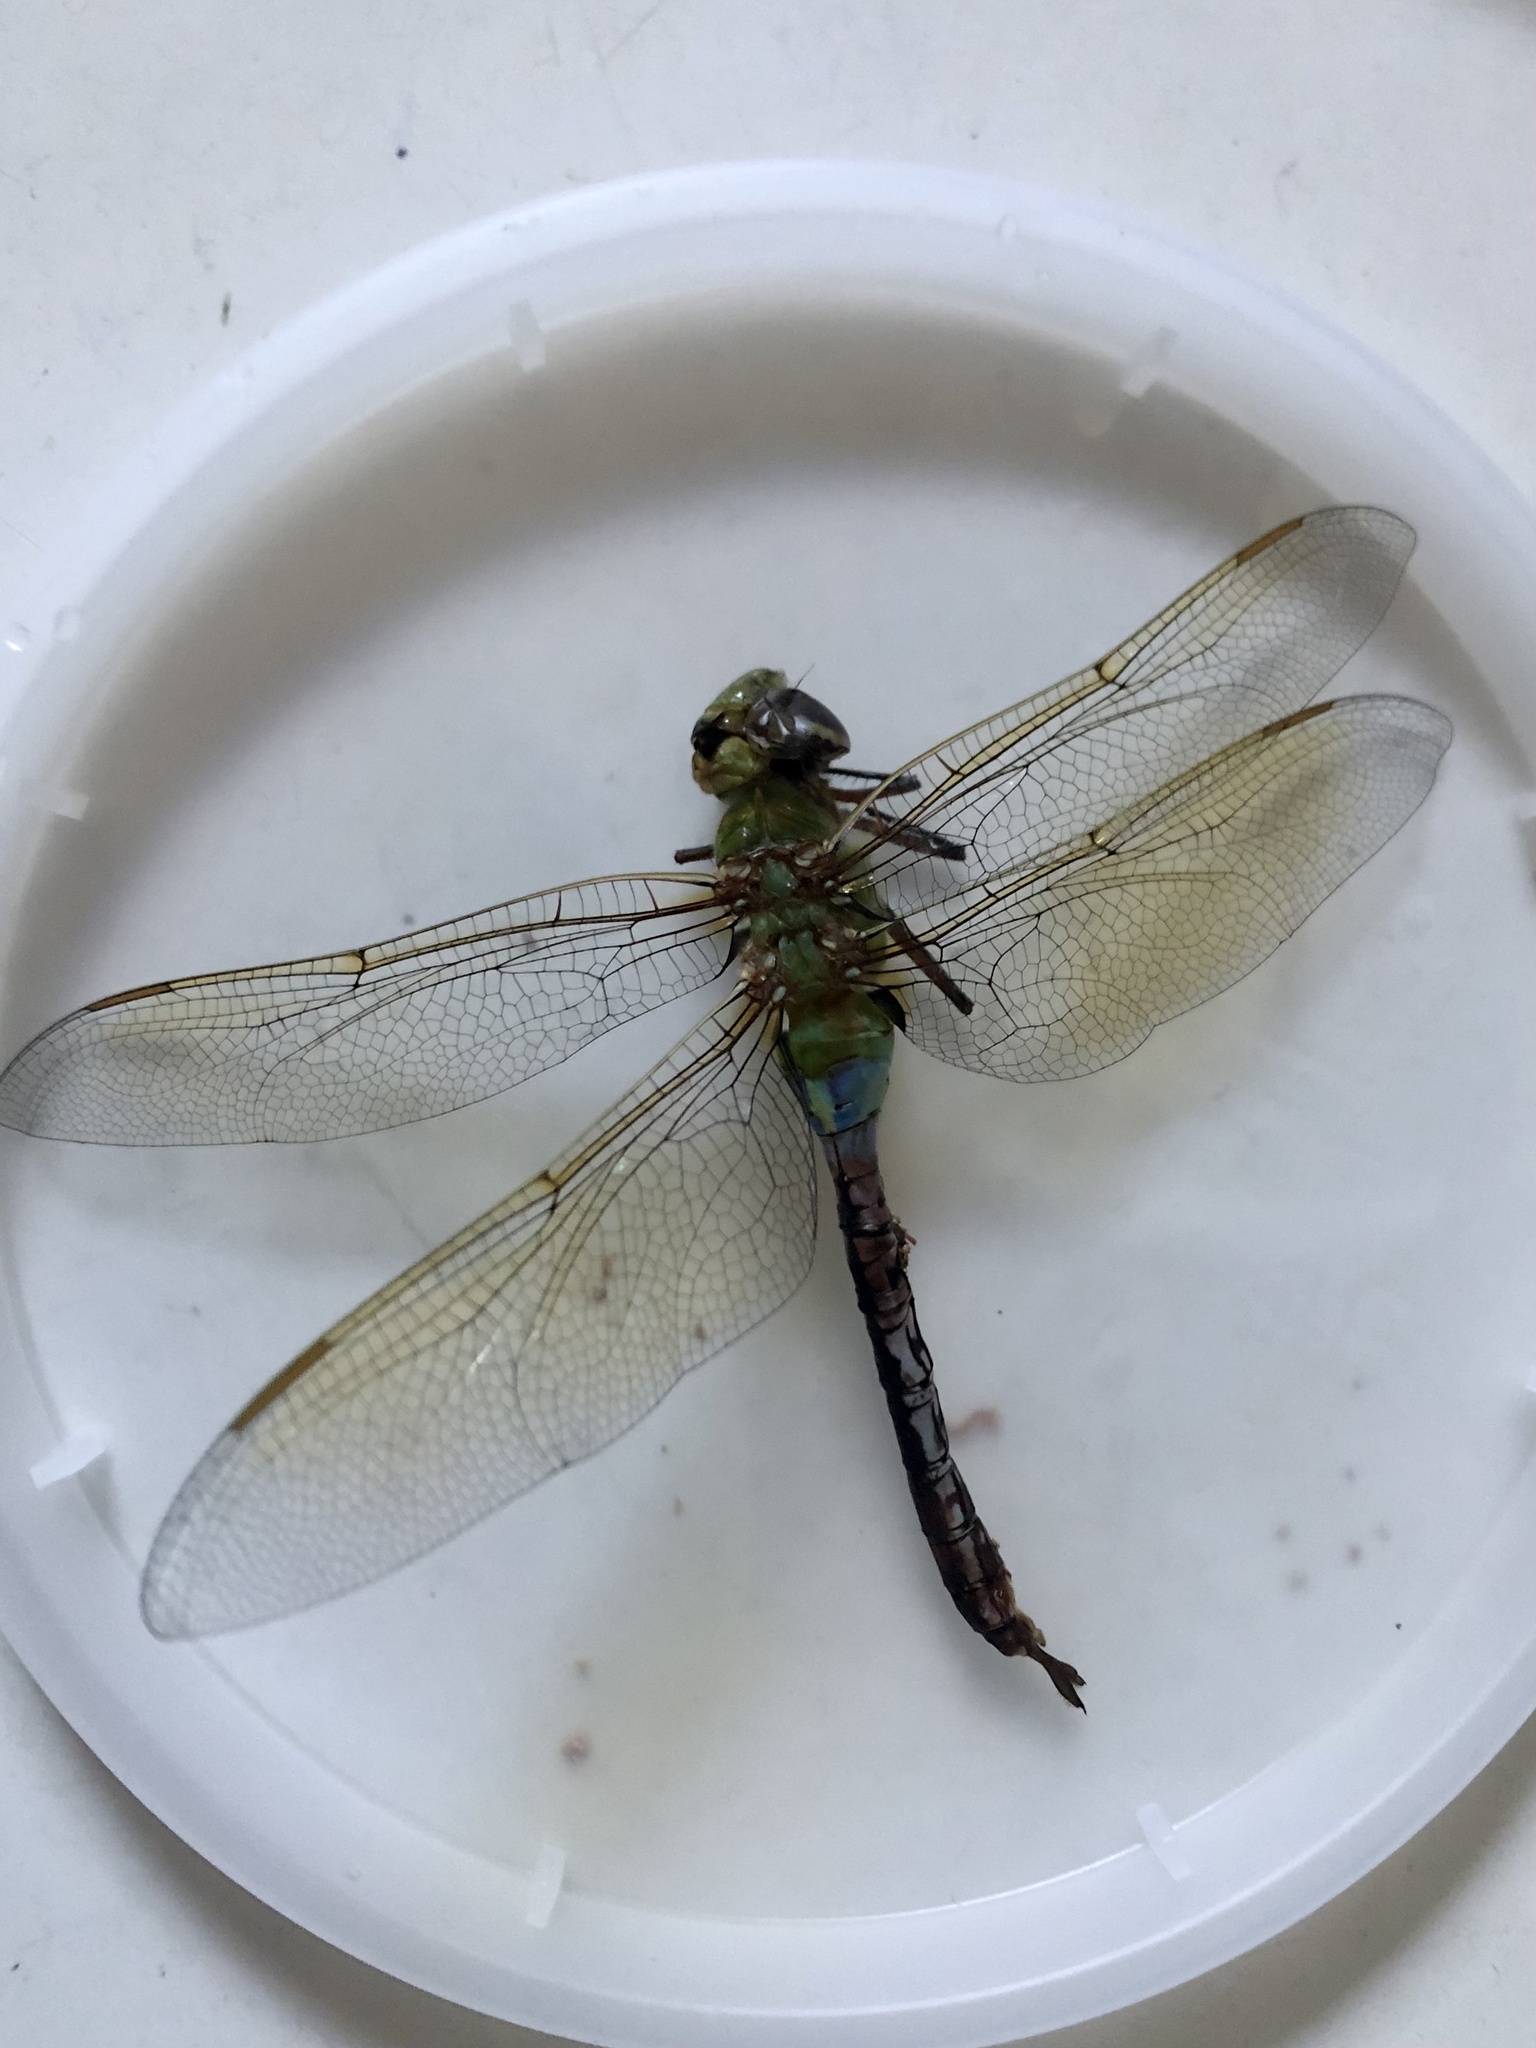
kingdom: Animalia
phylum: Arthropoda
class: Insecta
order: Odonata
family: Aeshnidae
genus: Anax
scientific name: Anax junius
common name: Common green darner
